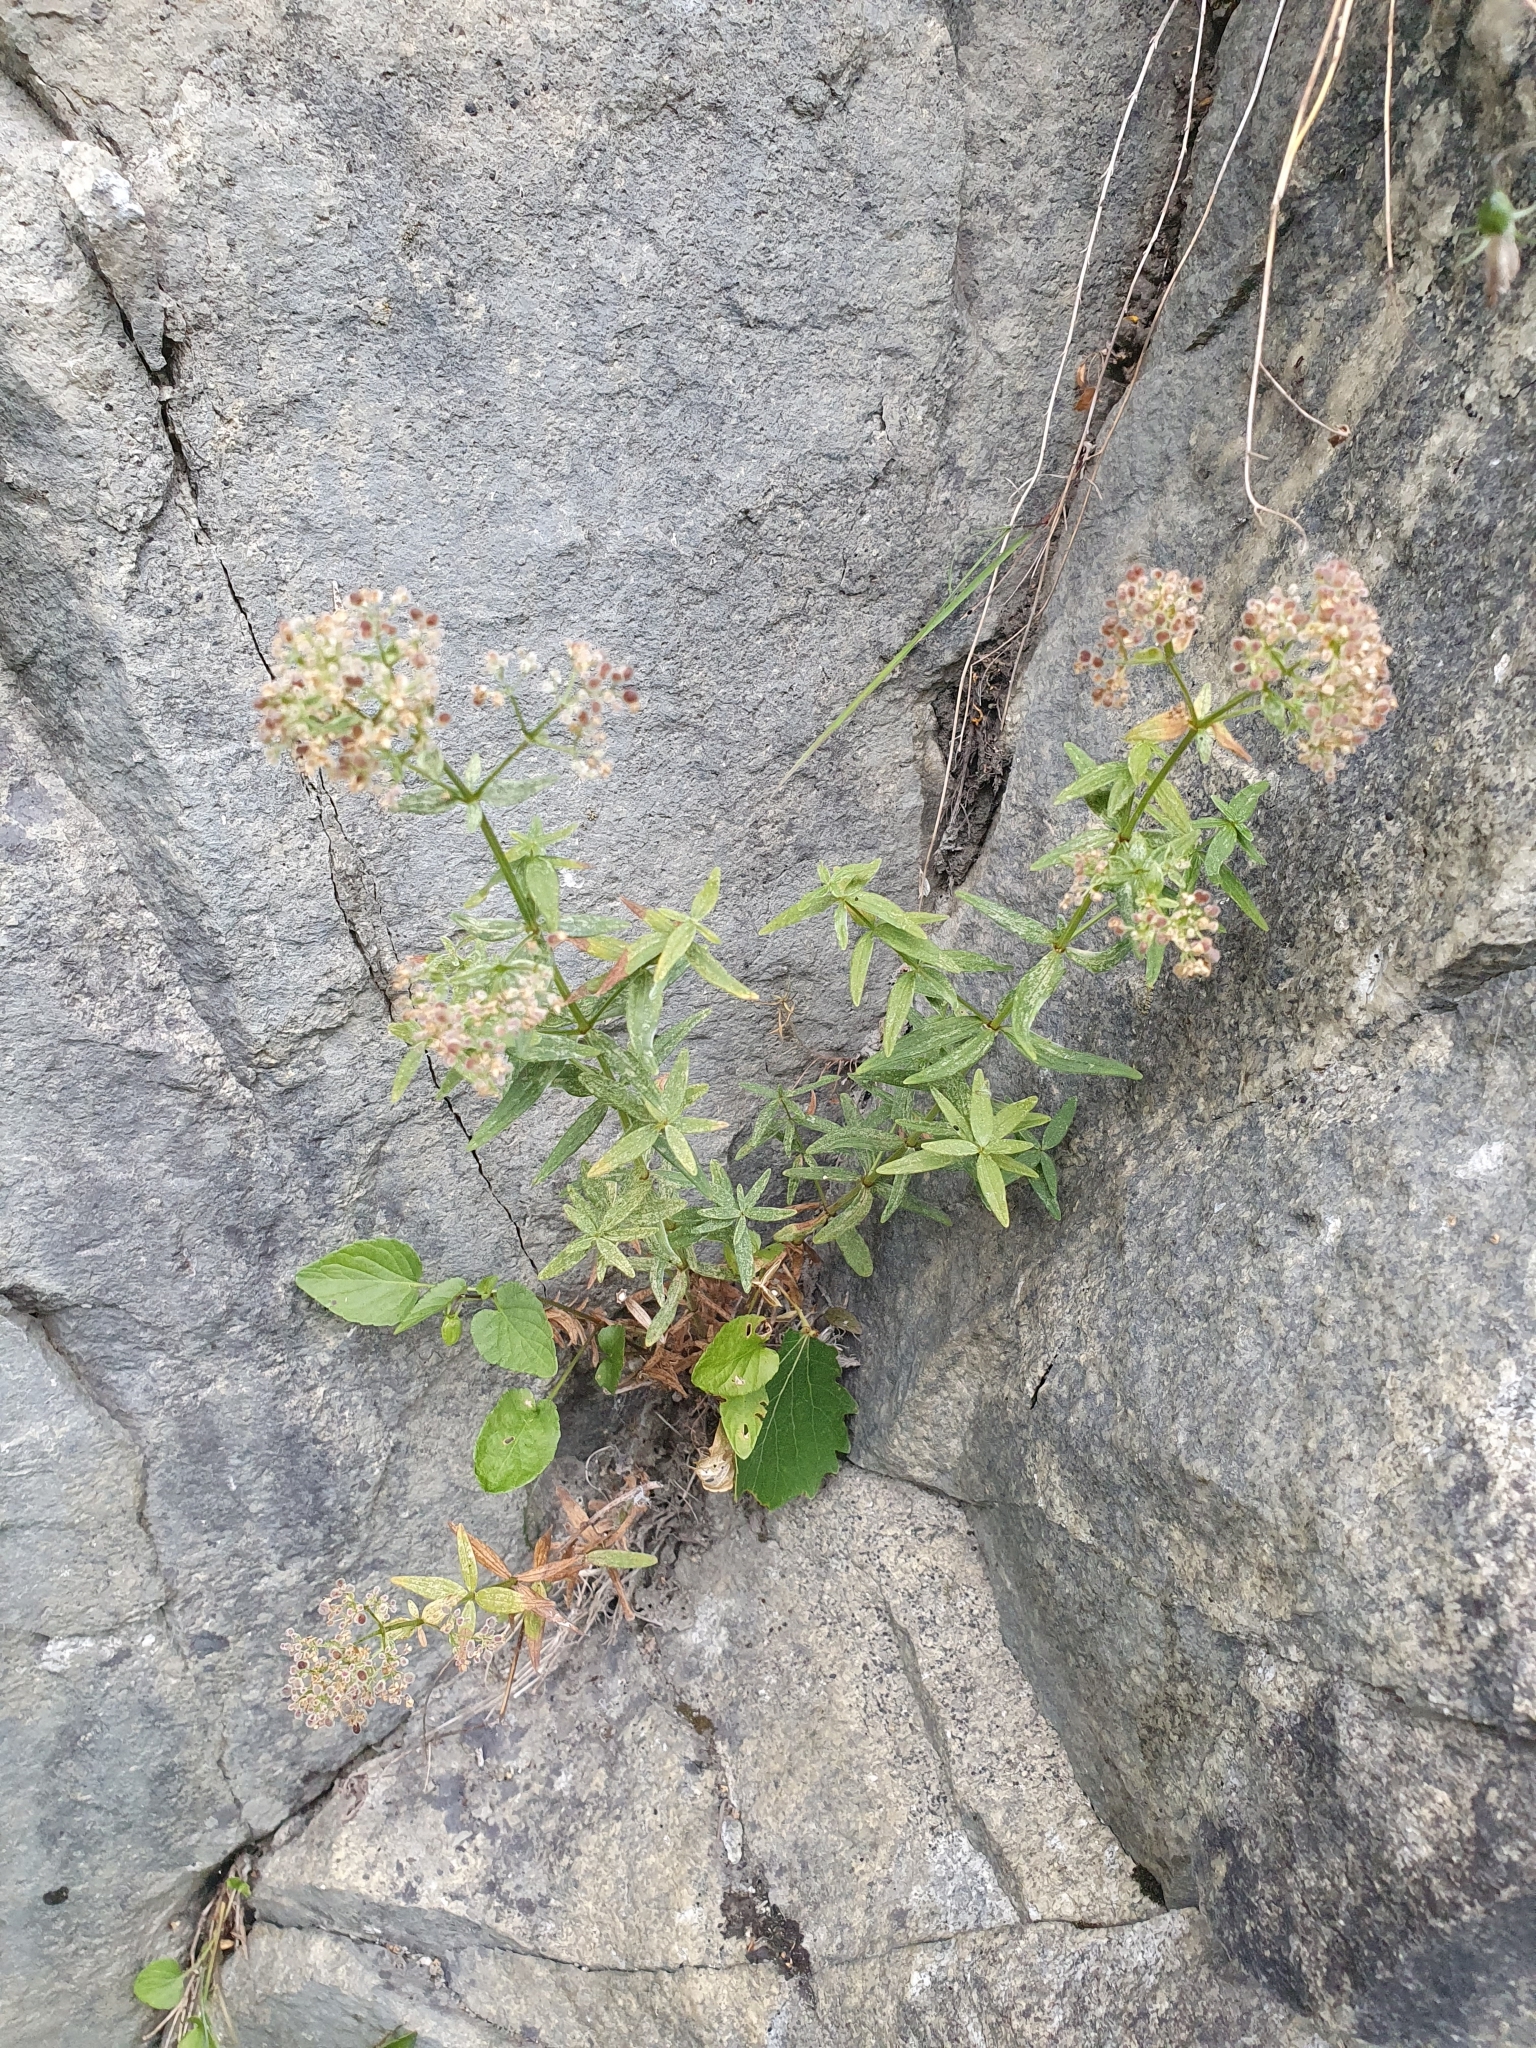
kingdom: Plantae
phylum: Tracheophyta
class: Magnoliopsida
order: Gentianales
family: Rubiaceae
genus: Galium
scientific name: Galium boreale
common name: Northern bedstraw
